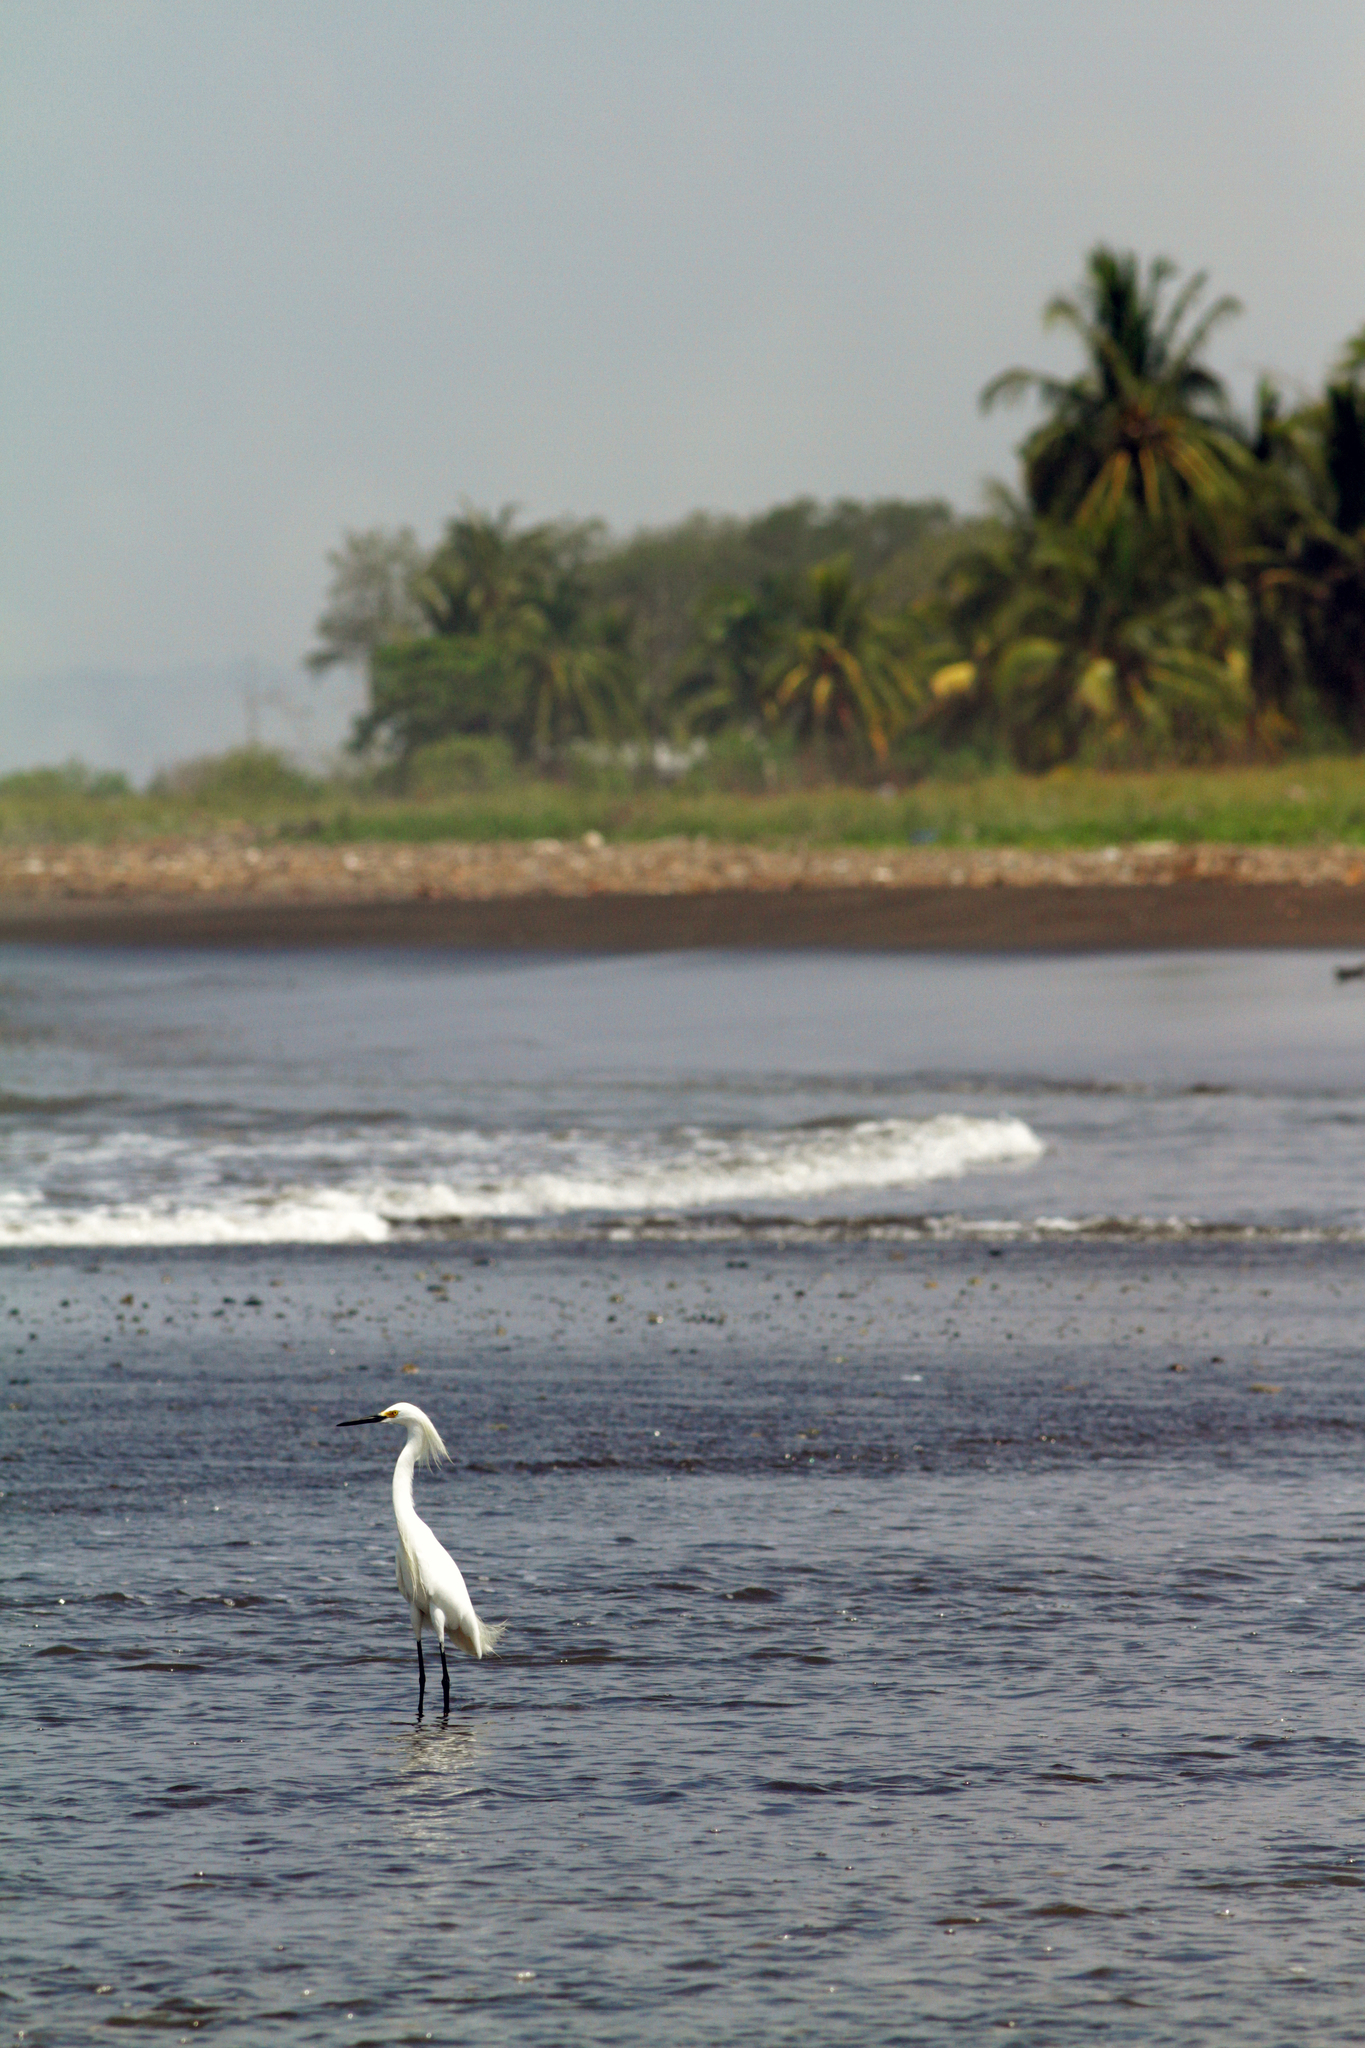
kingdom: Animalia
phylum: Chordata
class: Aves
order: Pelecaniformes
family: Ardeidae
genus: Egretta
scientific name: Egretta thula
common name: Snowy egret
